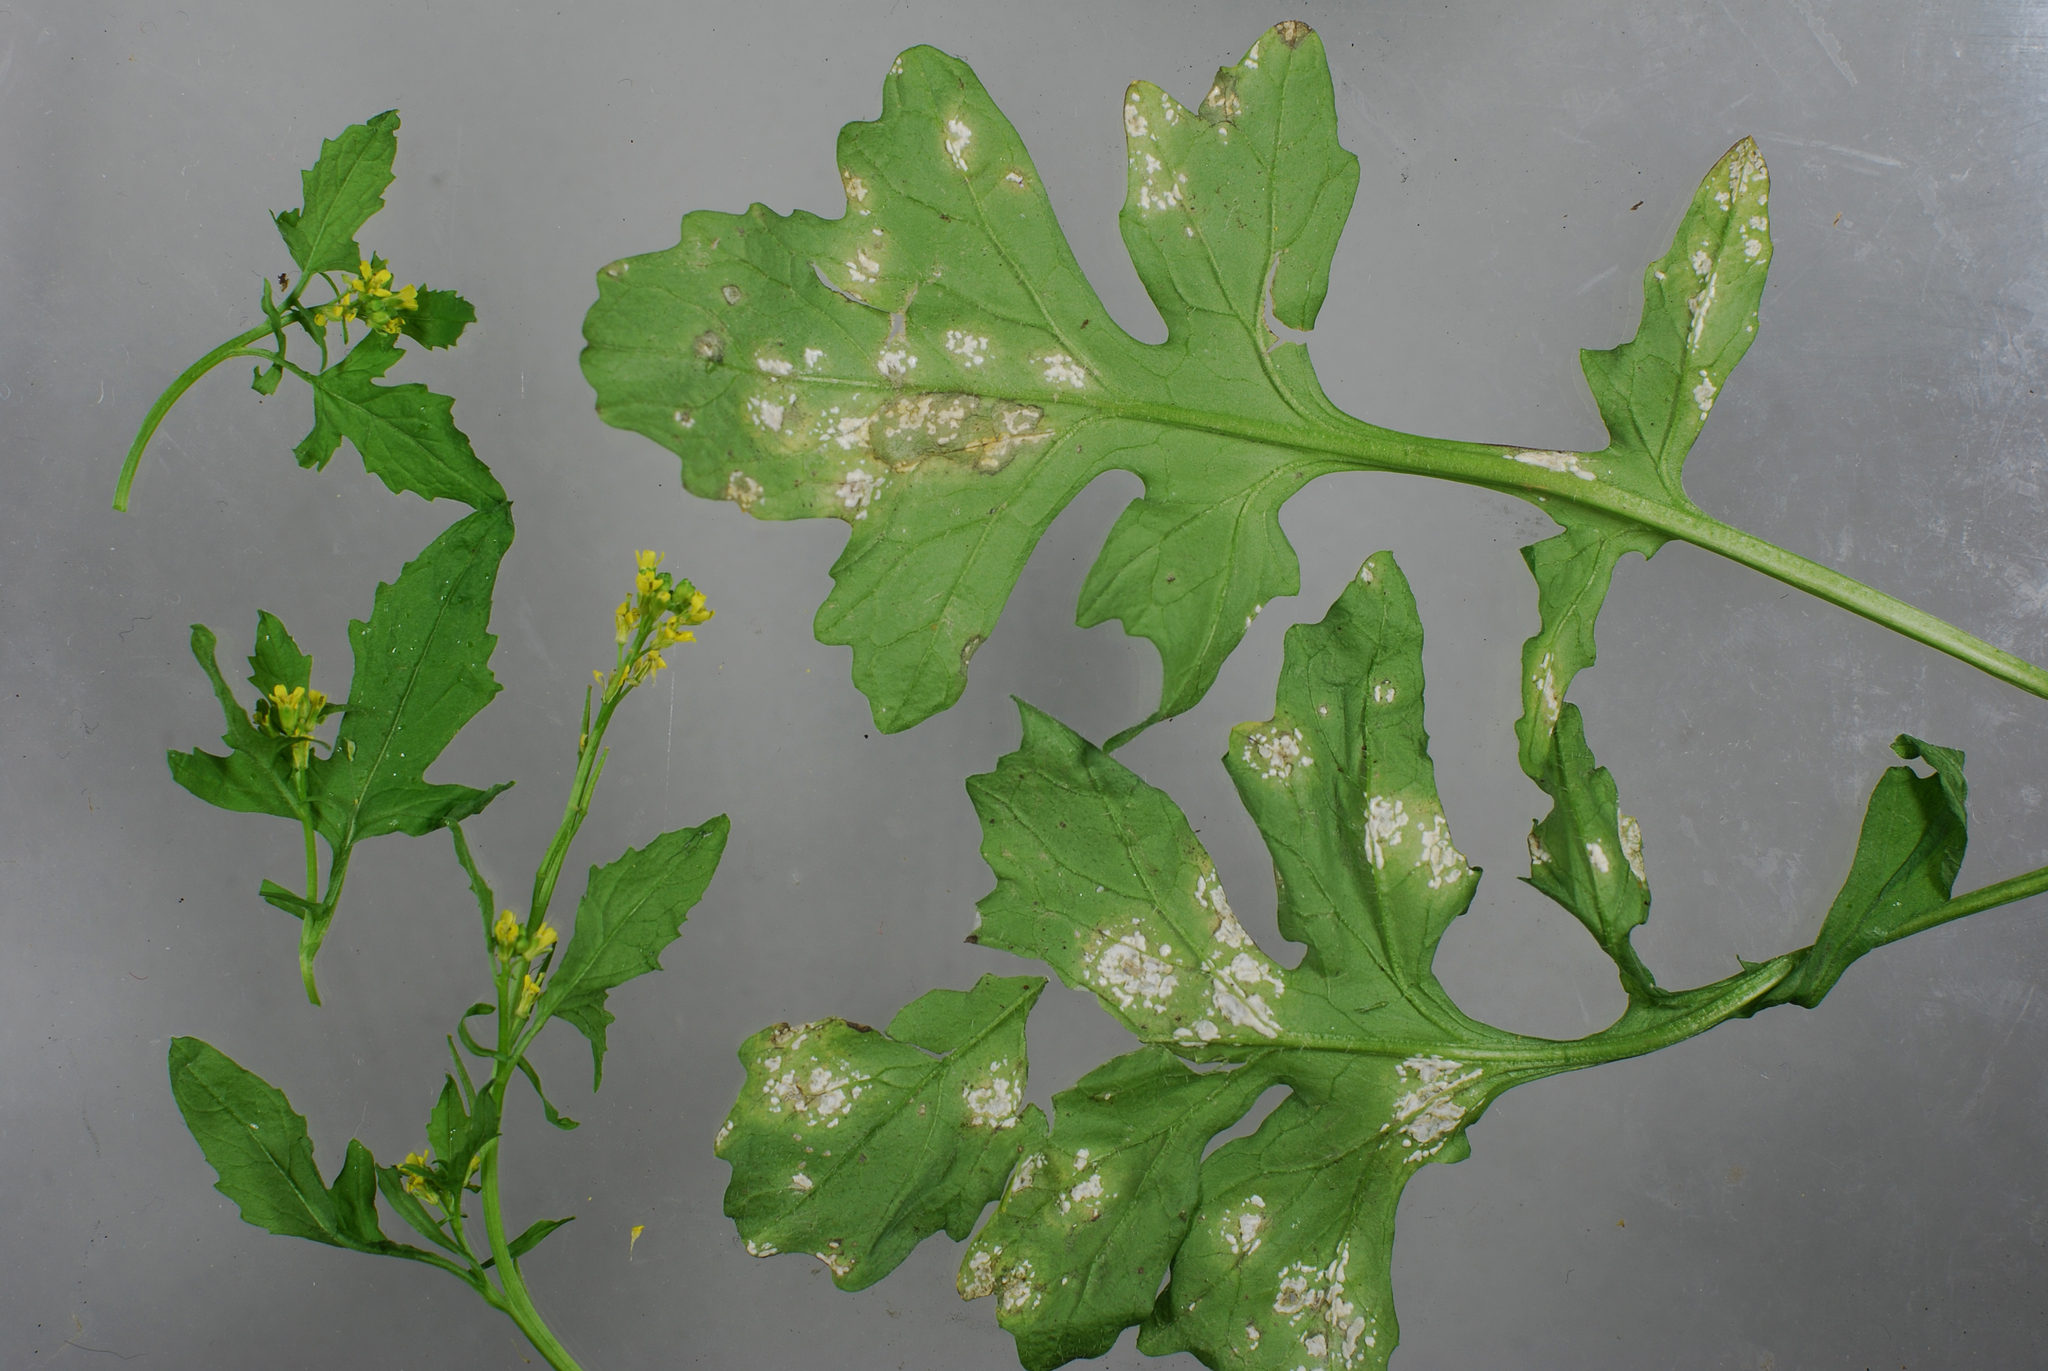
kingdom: Chromista
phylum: Oomycota
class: Peronosporea
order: Albuginales
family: Albuginaceae
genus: Albugo
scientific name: Albugo rorippae
